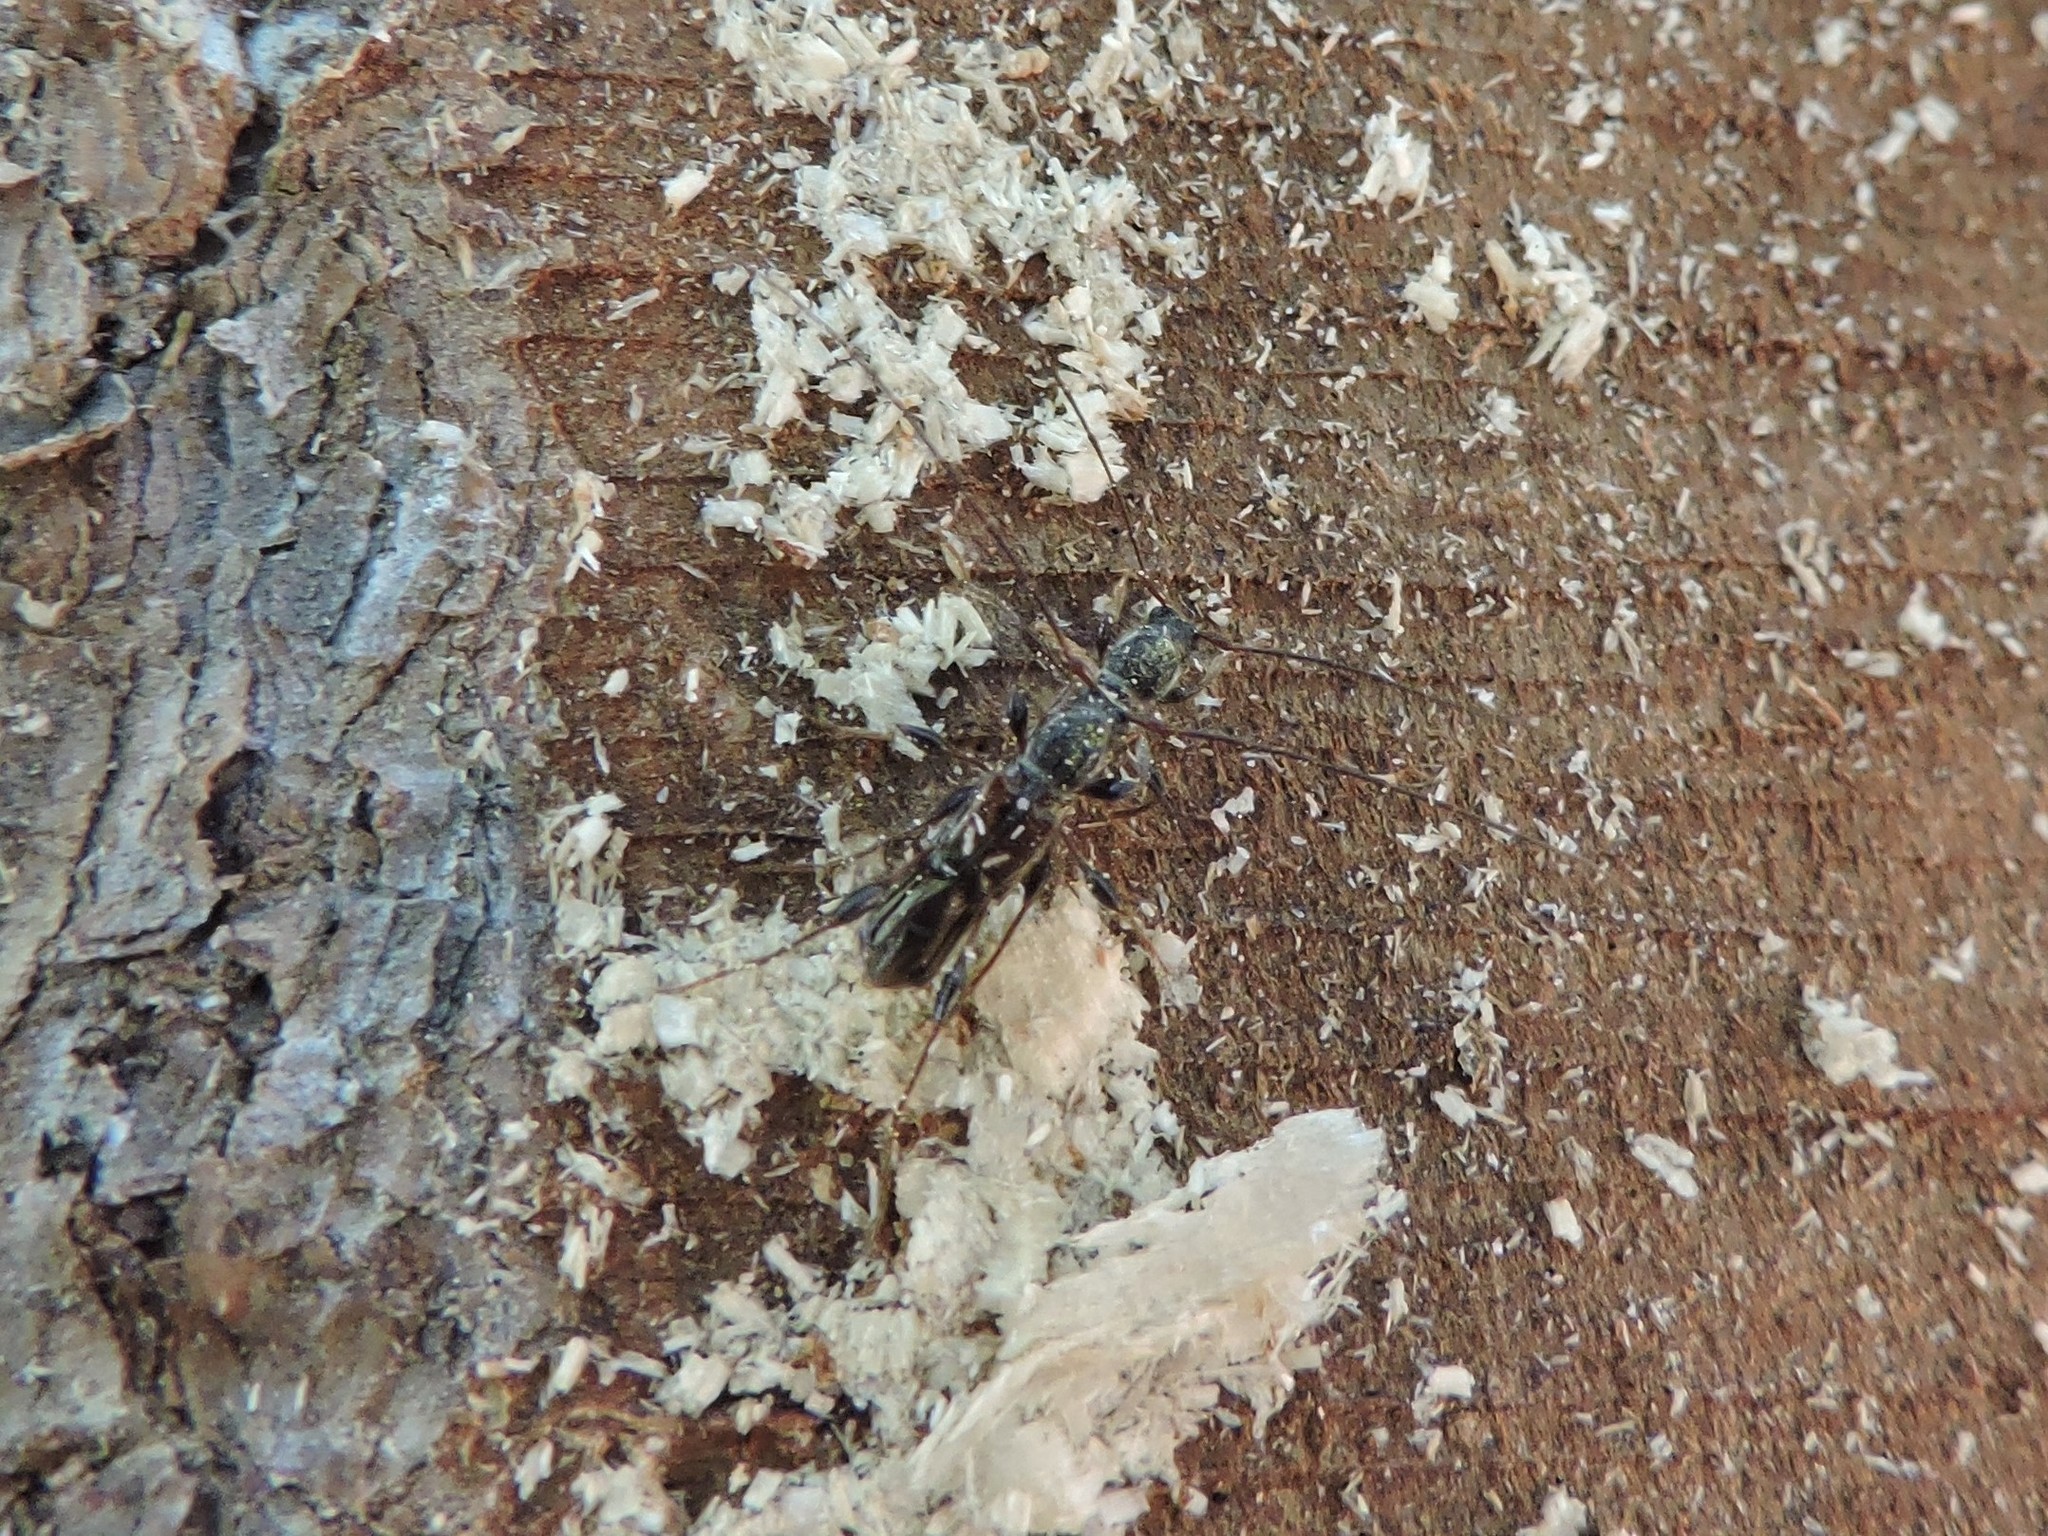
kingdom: Animalia
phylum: Arthropoda
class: Insecta
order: Coleoptera
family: Cerambycidae
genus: Molorchus
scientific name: Molorchus minor
